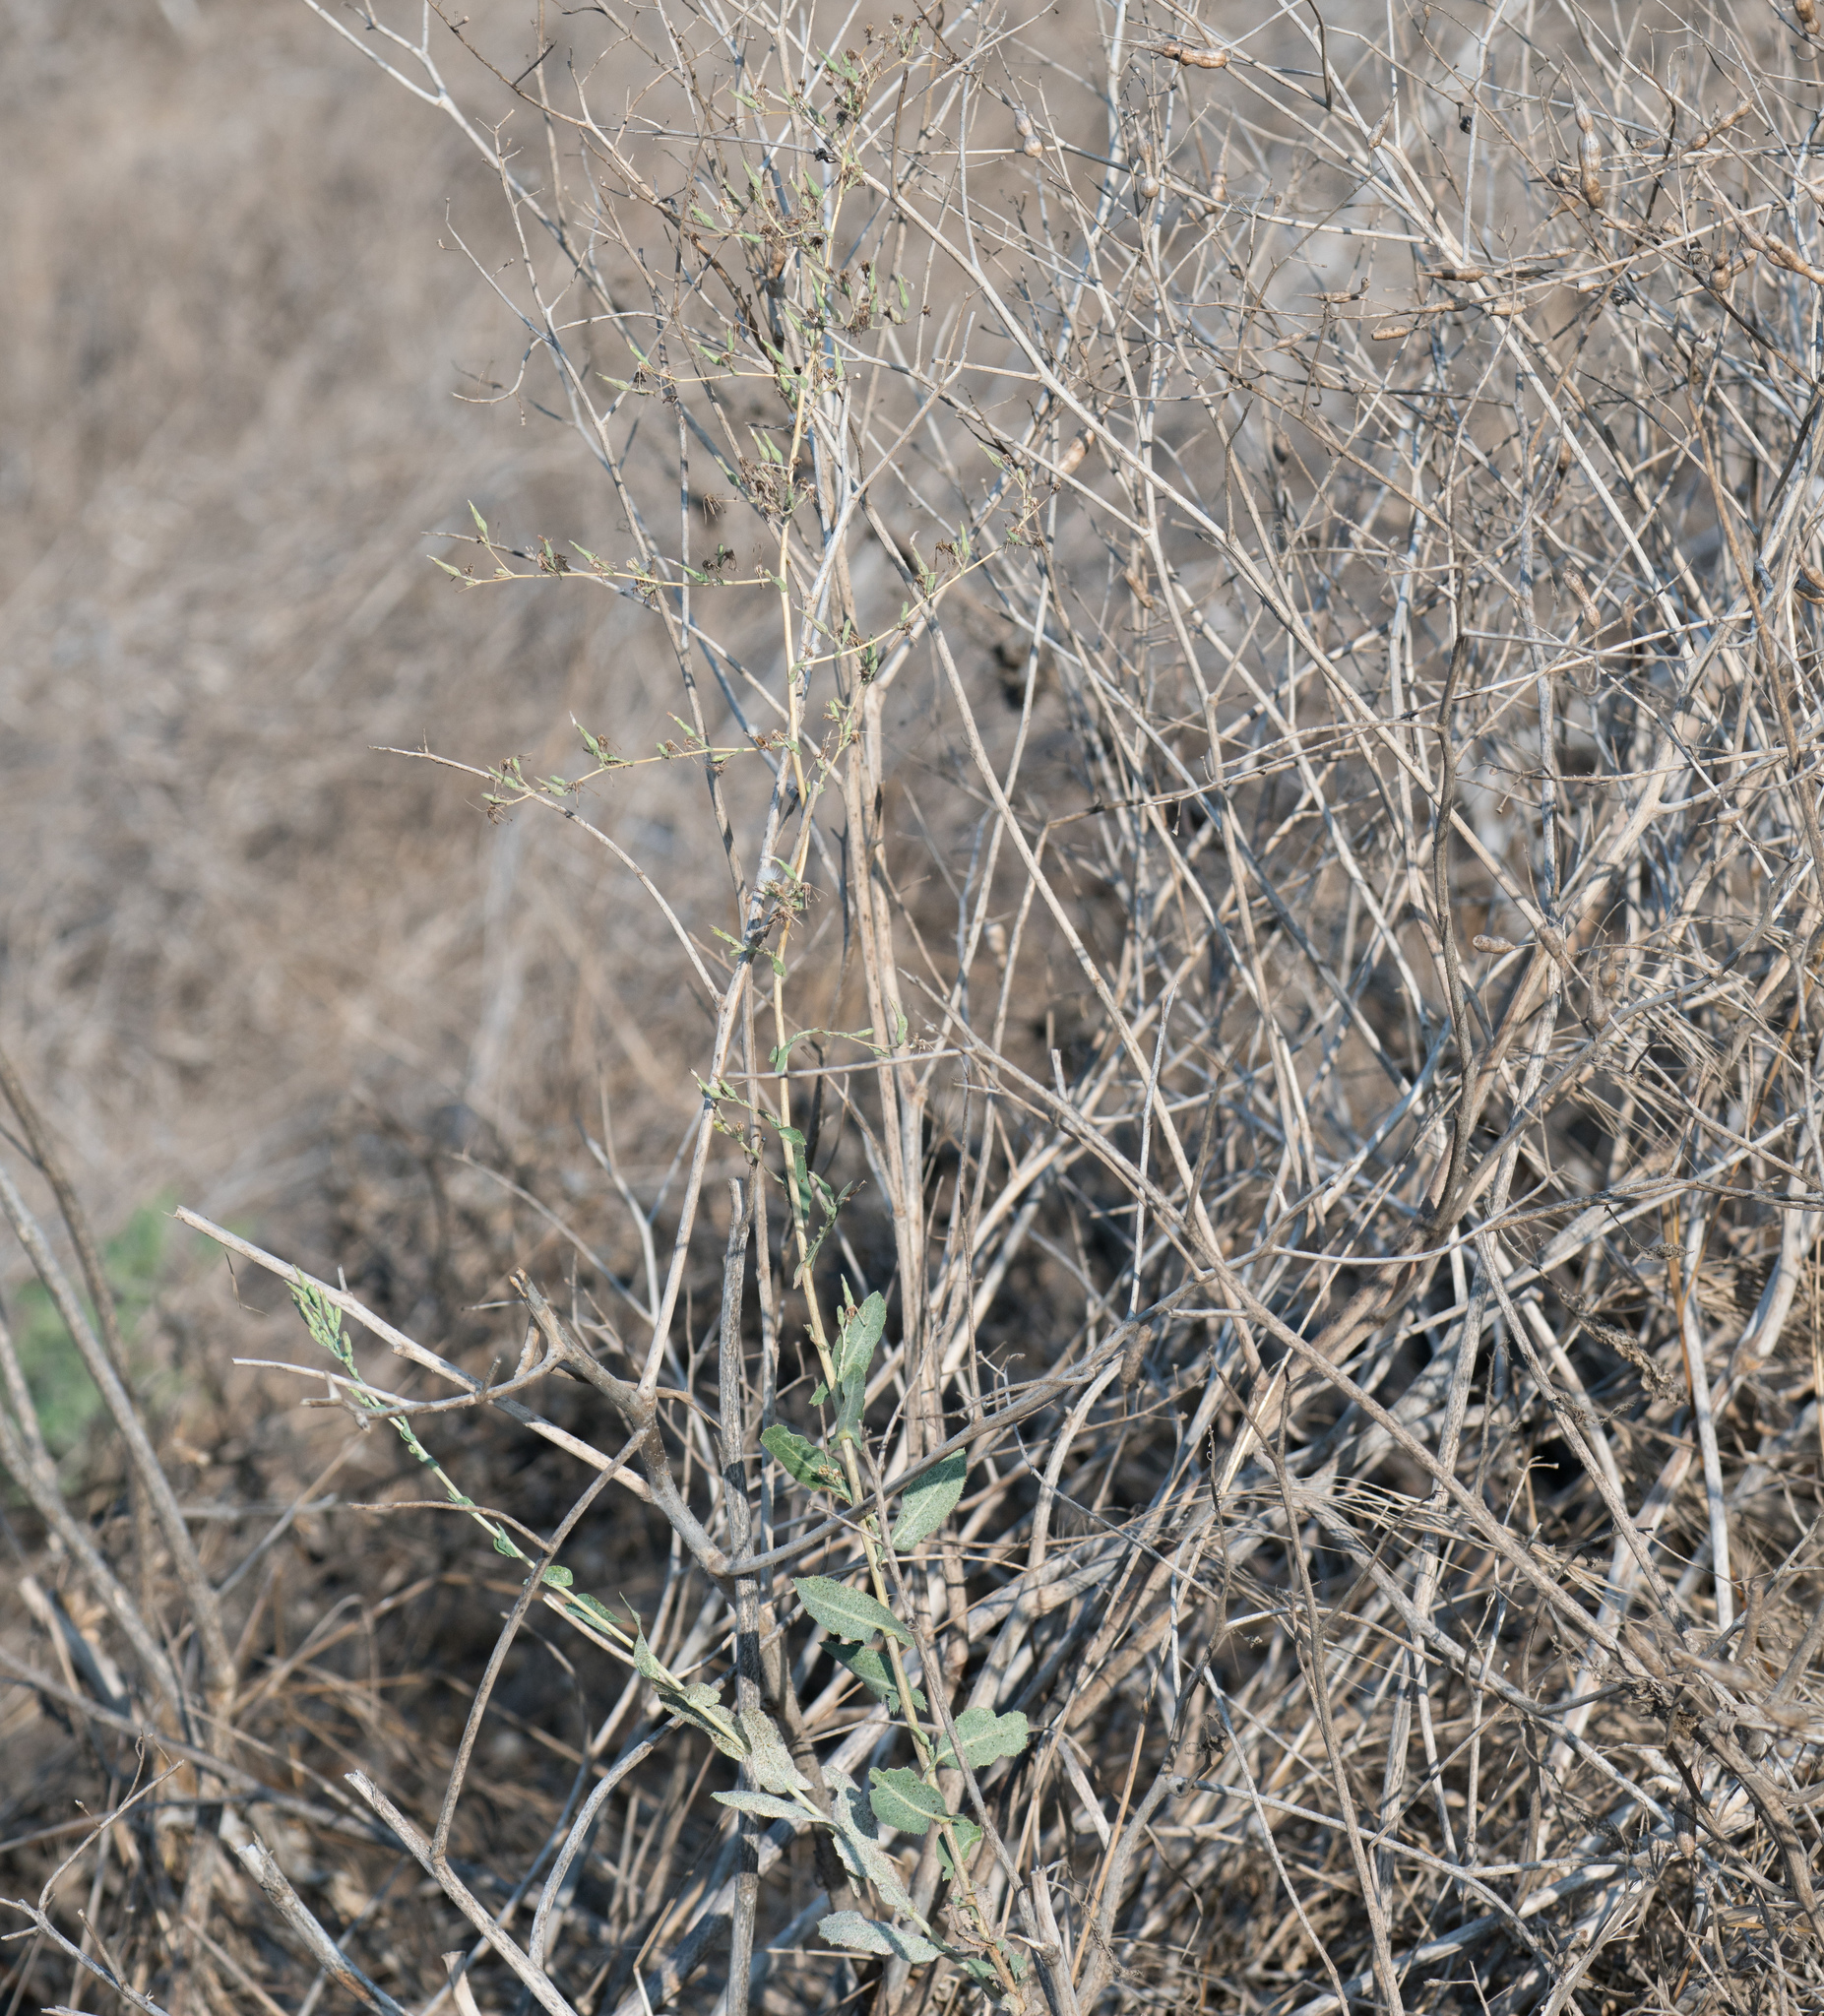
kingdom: Plantae
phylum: Tracheophyta
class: Magnoliopsida
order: Asterales
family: Asteraceae
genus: Lactuca
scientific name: Lactuca serriola
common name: Prickly lettuce
